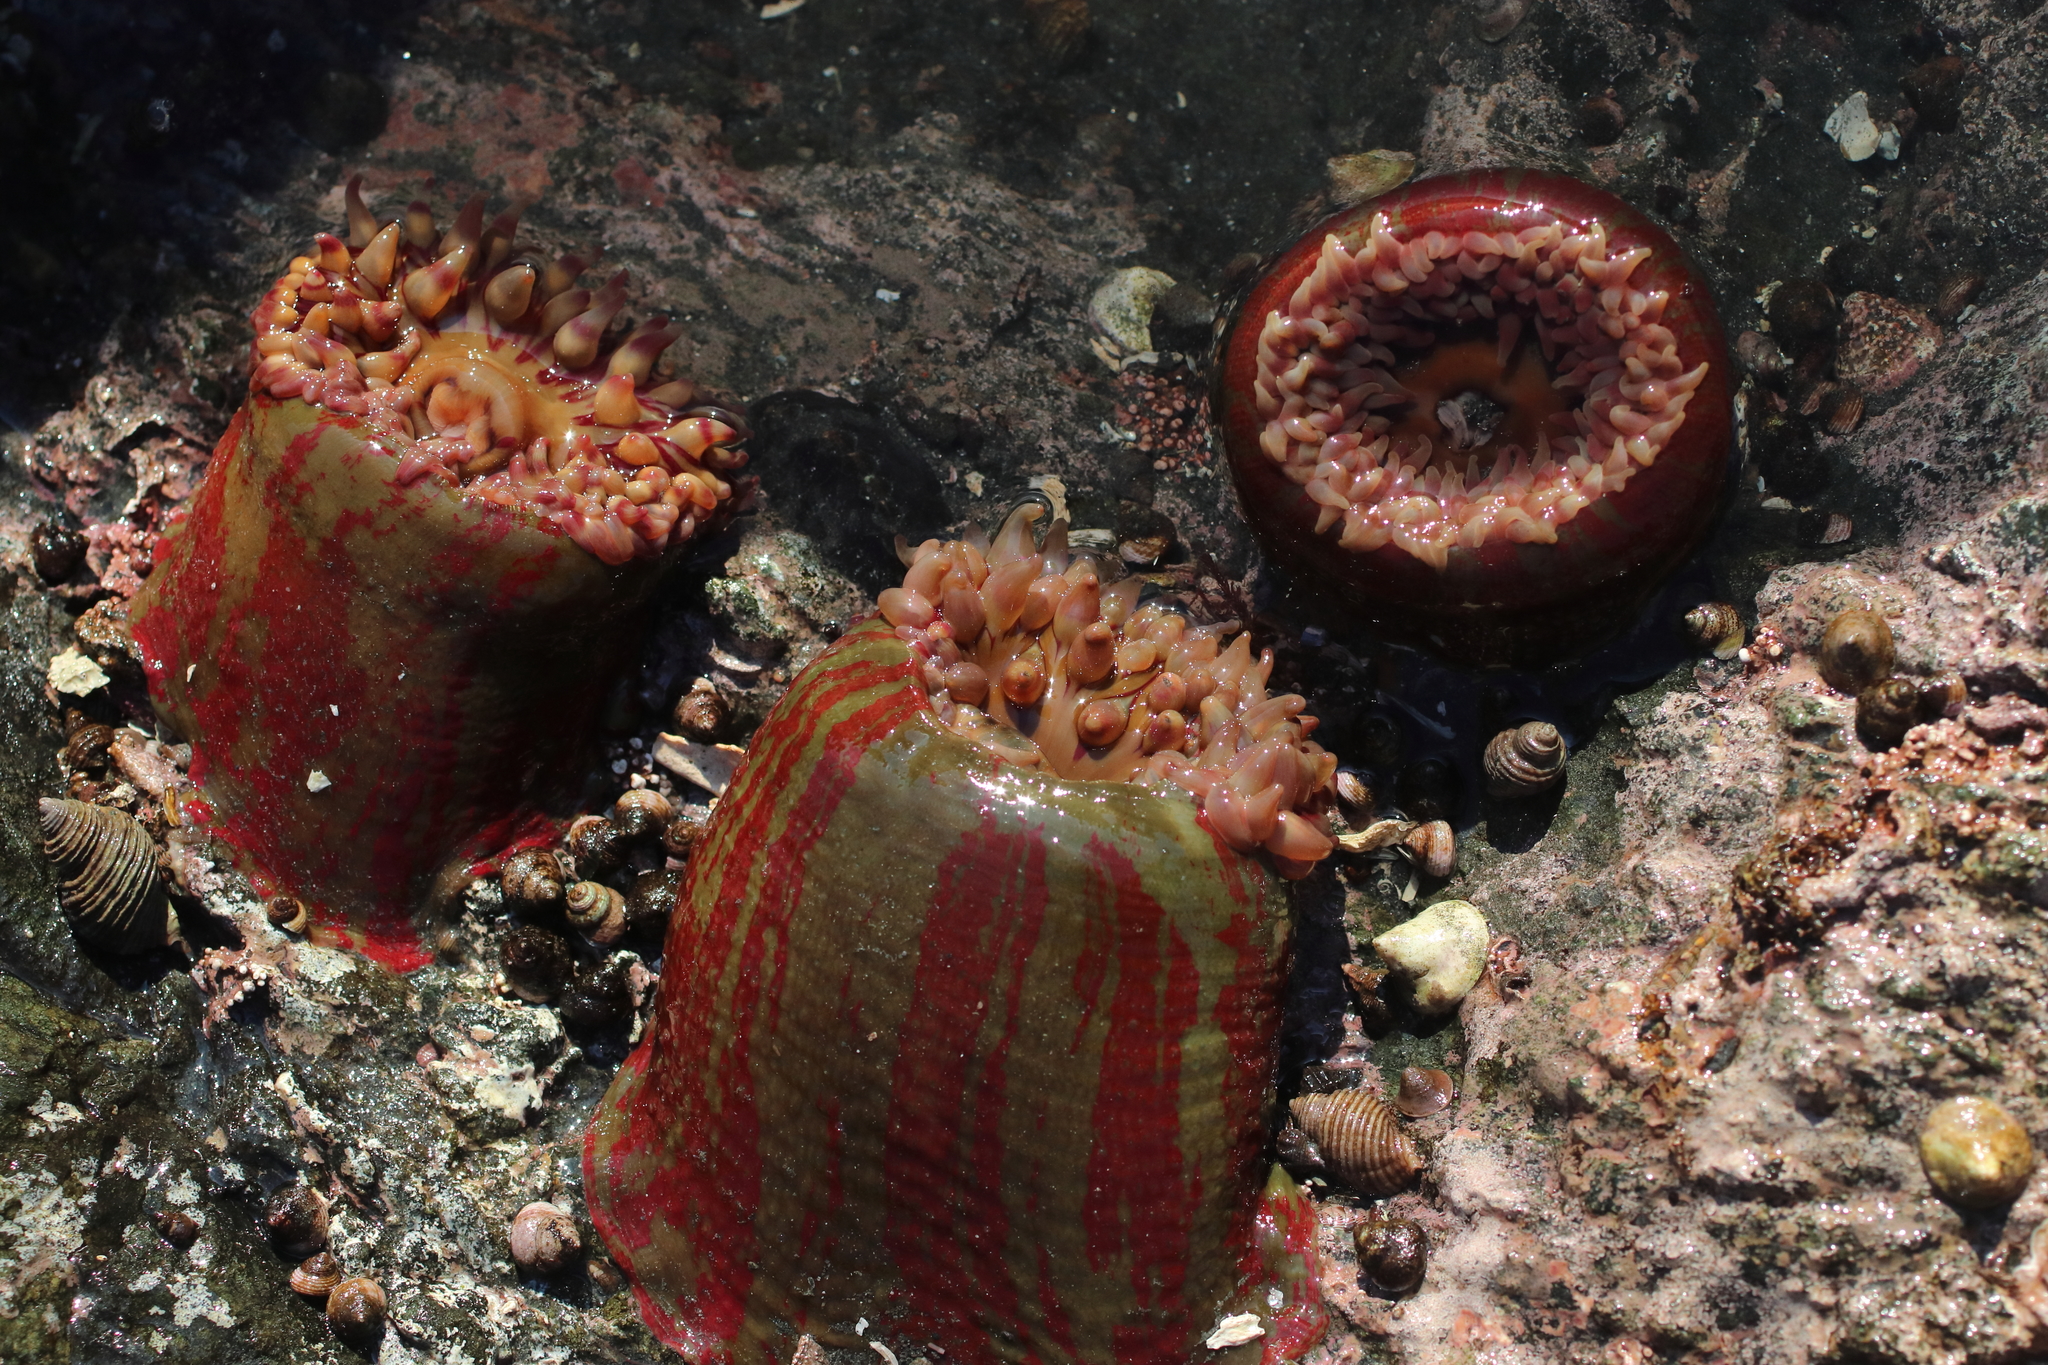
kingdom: Animalia
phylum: Cnidaria
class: Anthozoa
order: Actiniaria
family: Actiniidae
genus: Urticina
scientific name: Urticina grebelnyi
